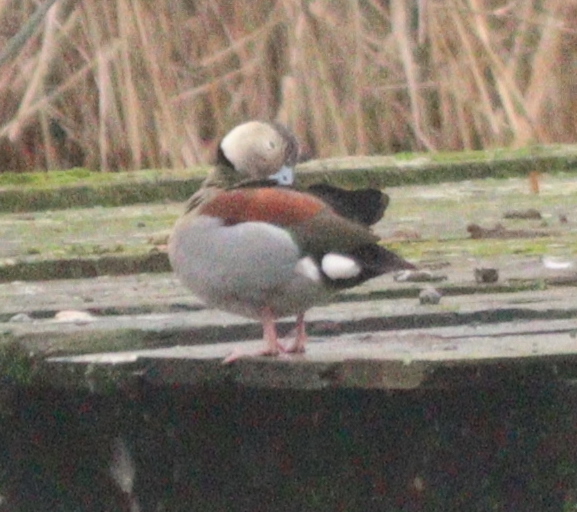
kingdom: Animalia
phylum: Chordata
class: Aves
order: Anseriformes
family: Anatidae
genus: Callonetta
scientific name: Callonetta leucophrys
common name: Ringed teal
